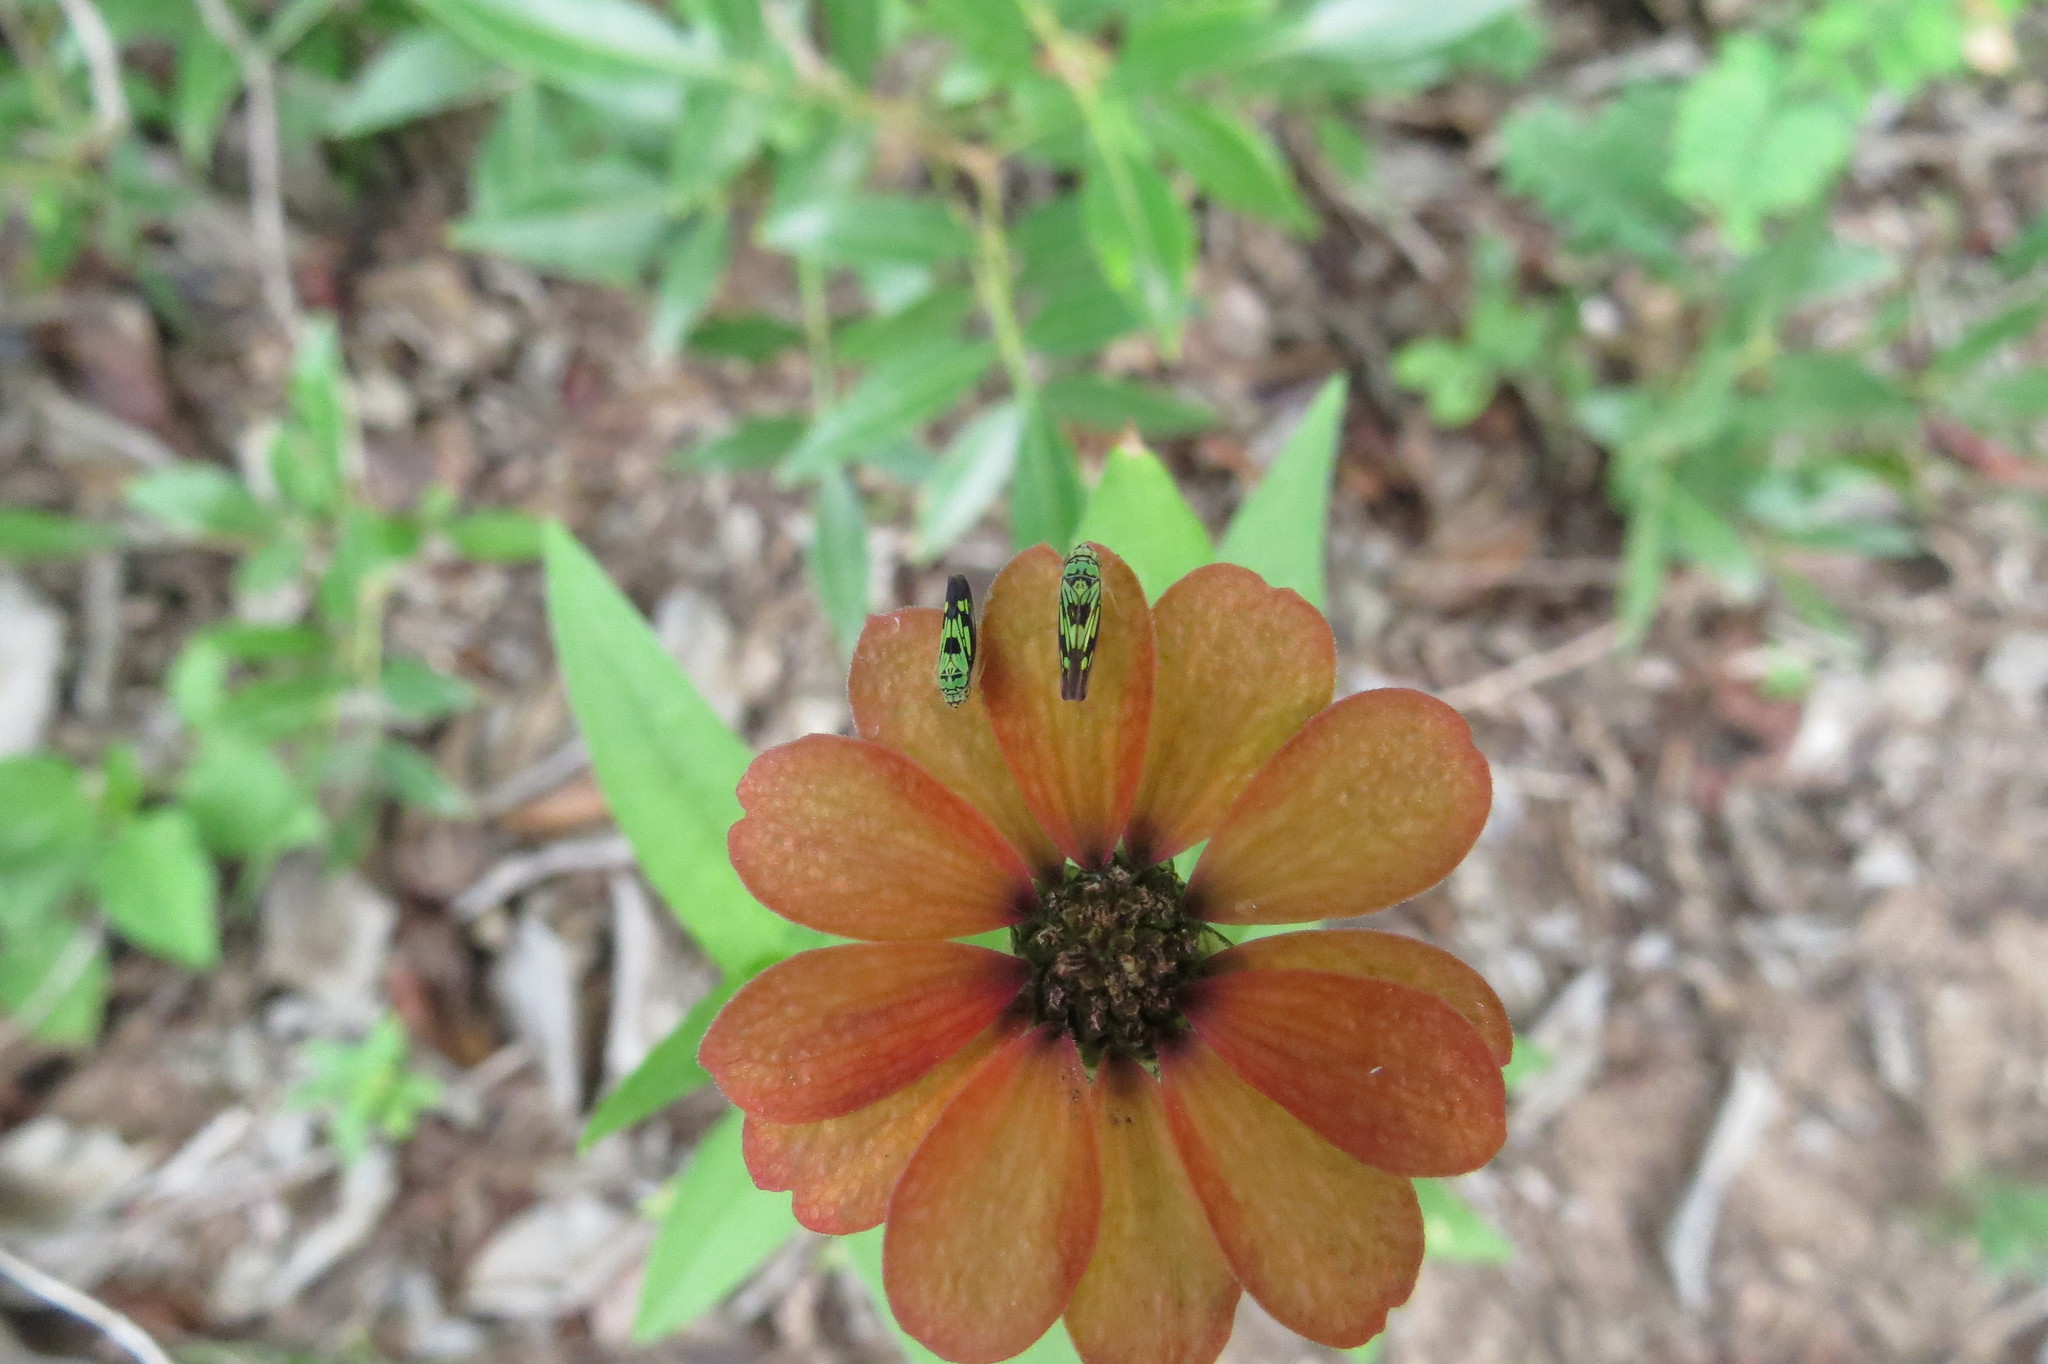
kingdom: Animalia
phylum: Arthropoda
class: Insecta
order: Hemiptera
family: Cicadellidae
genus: Scopogonalia
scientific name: Scopogonalia penicula
